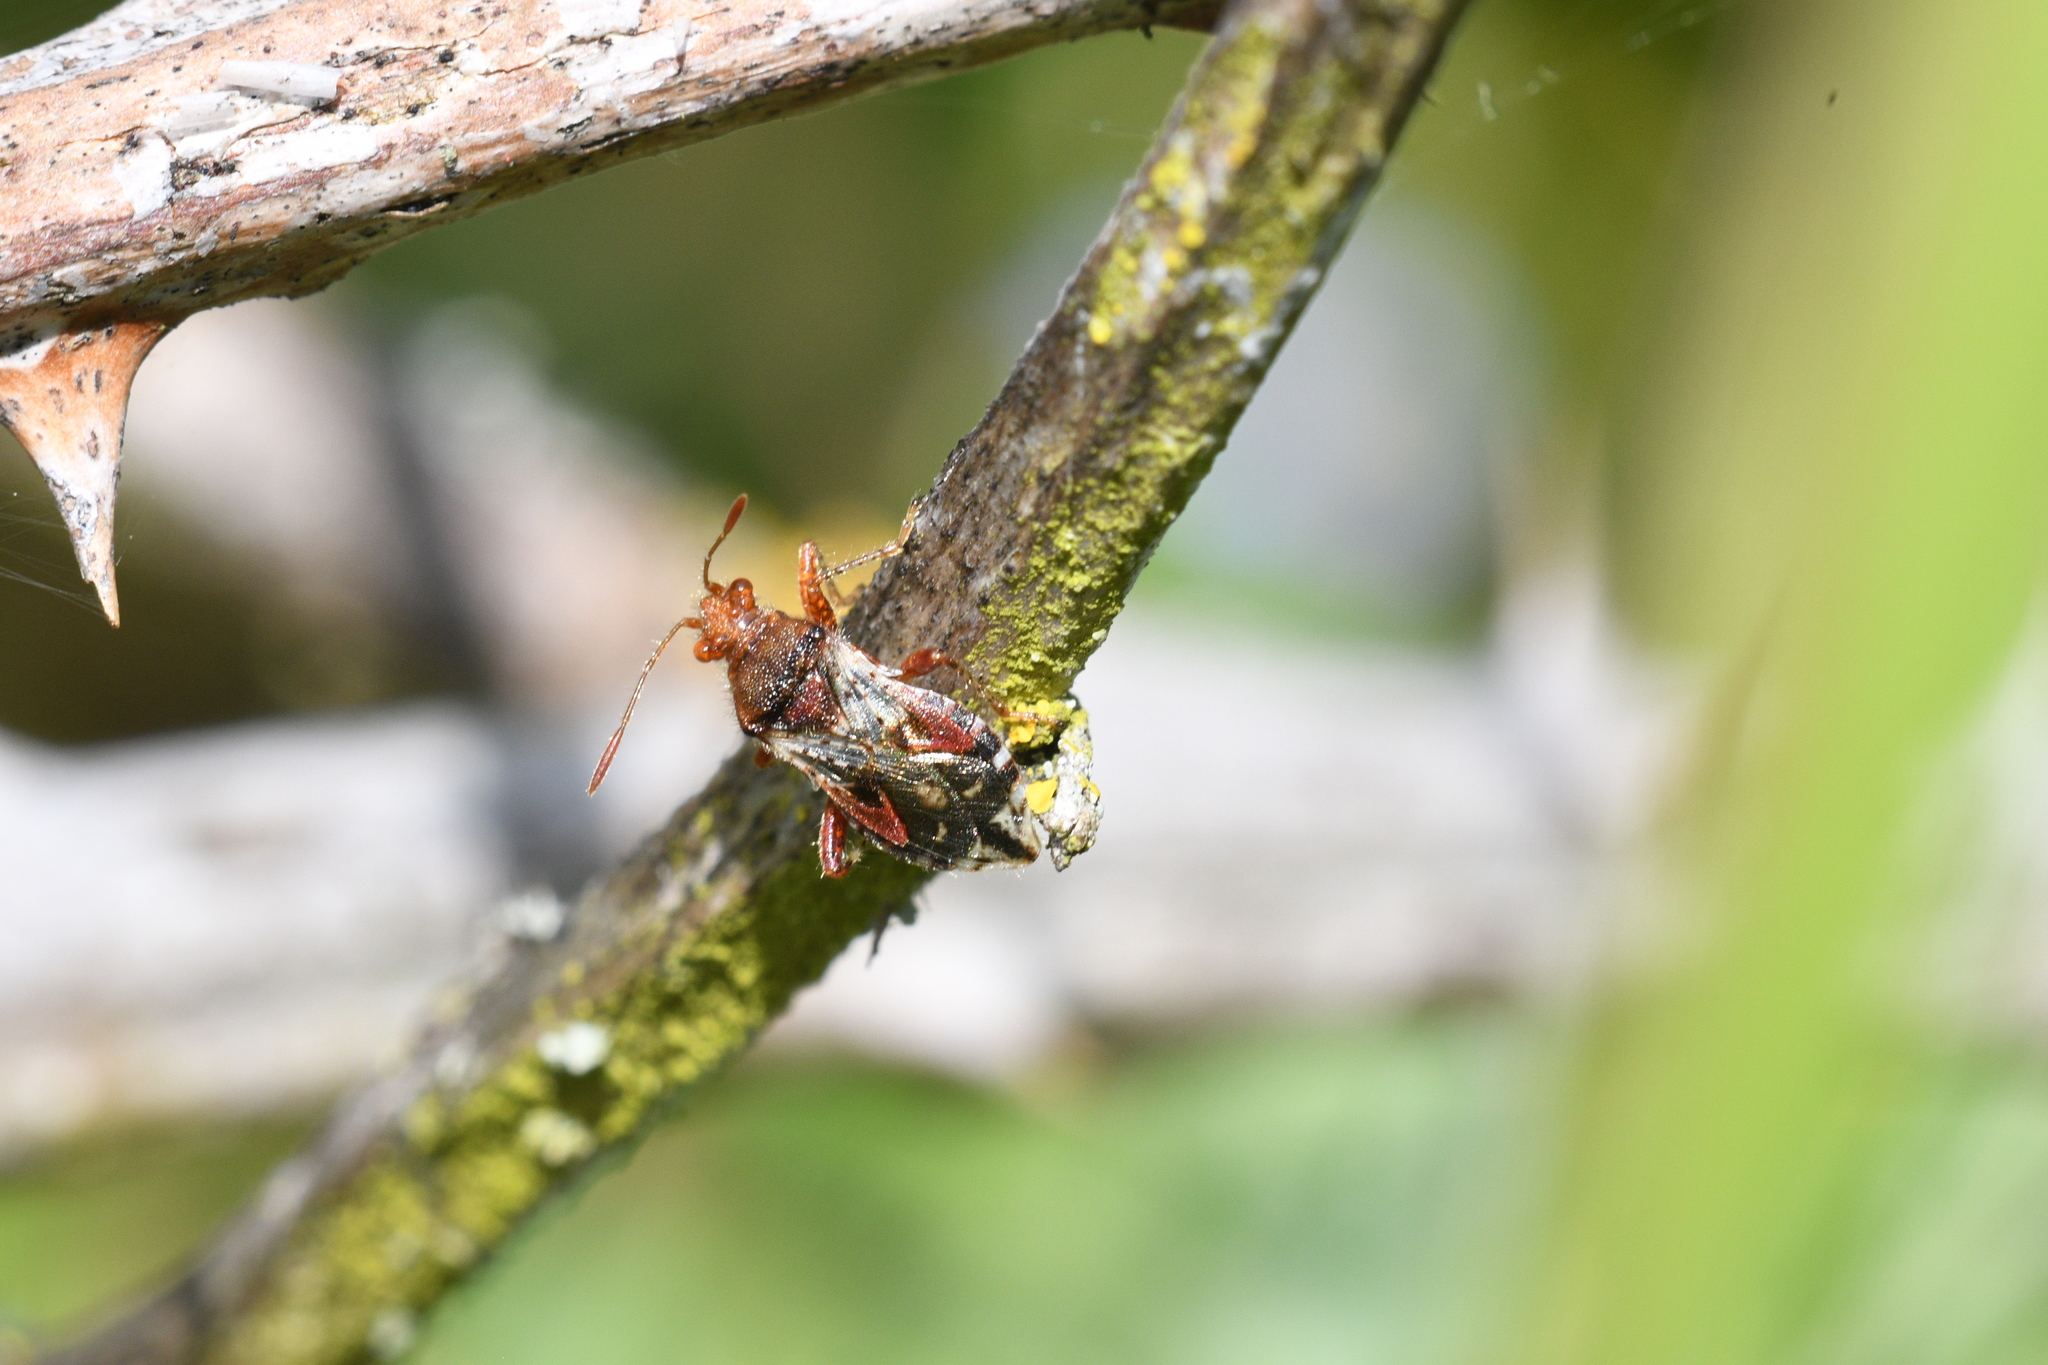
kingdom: Animalia
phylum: Arthropoda
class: Insecta
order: Hemiptera
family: Rhopalidae
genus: Rhopalus
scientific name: Rhopalus subrufus
